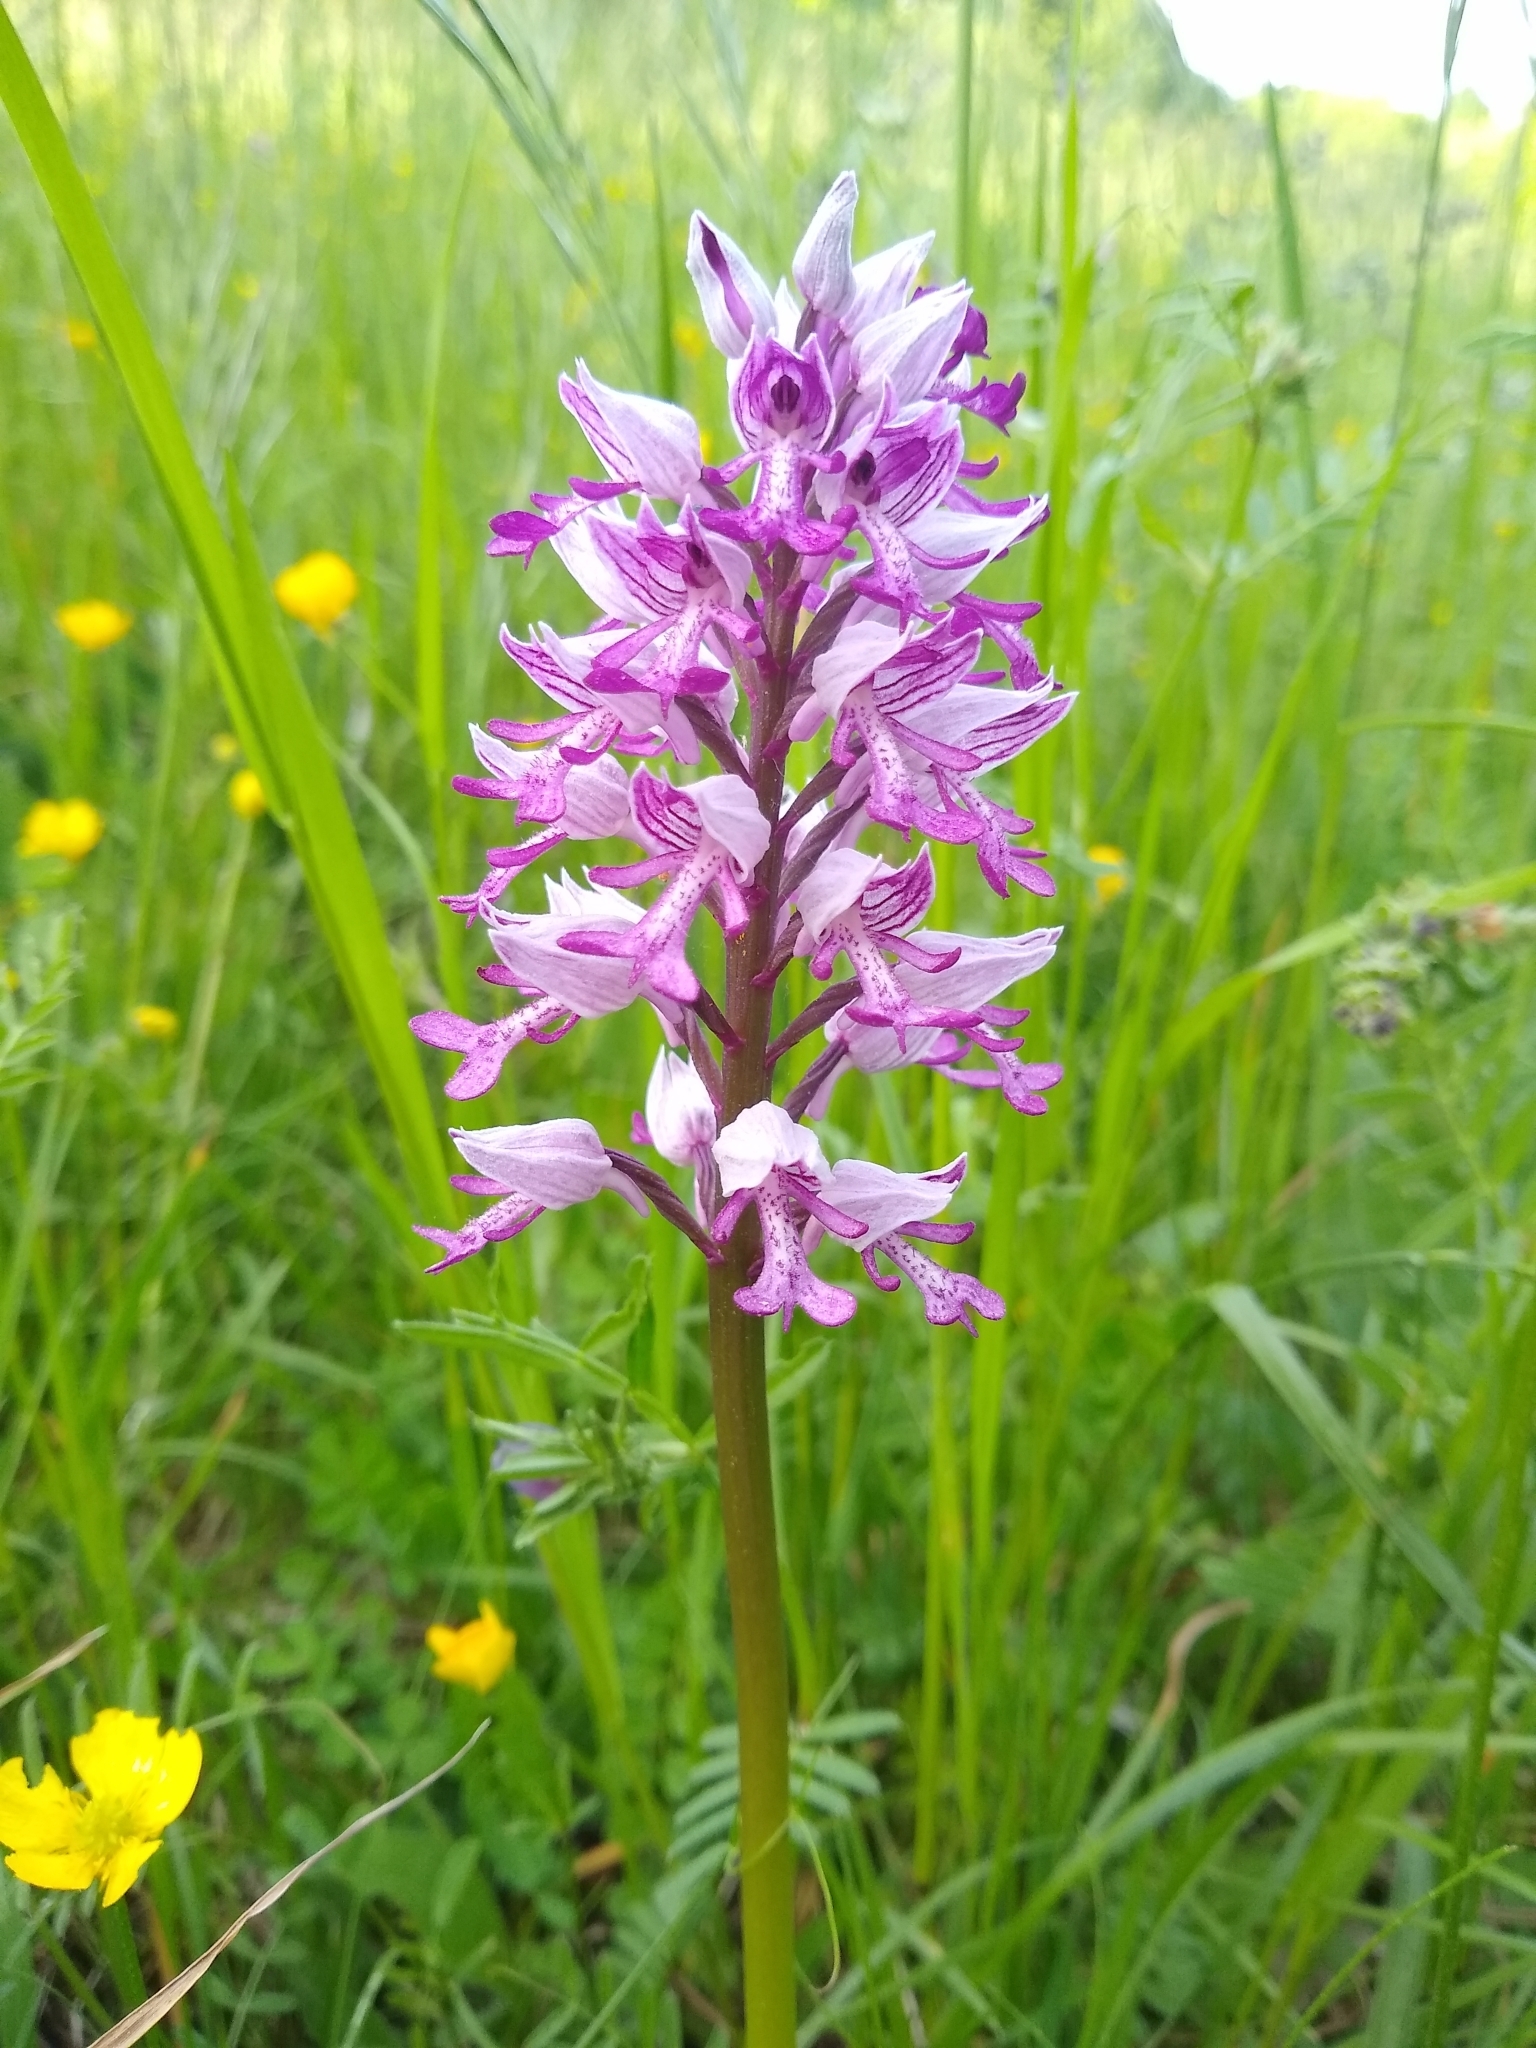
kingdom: Plantae
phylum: Tracheophyta
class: Liliopsida
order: Asparagales
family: Orchidaceae
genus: Orchis
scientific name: Orchis militaris
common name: Military orchid
